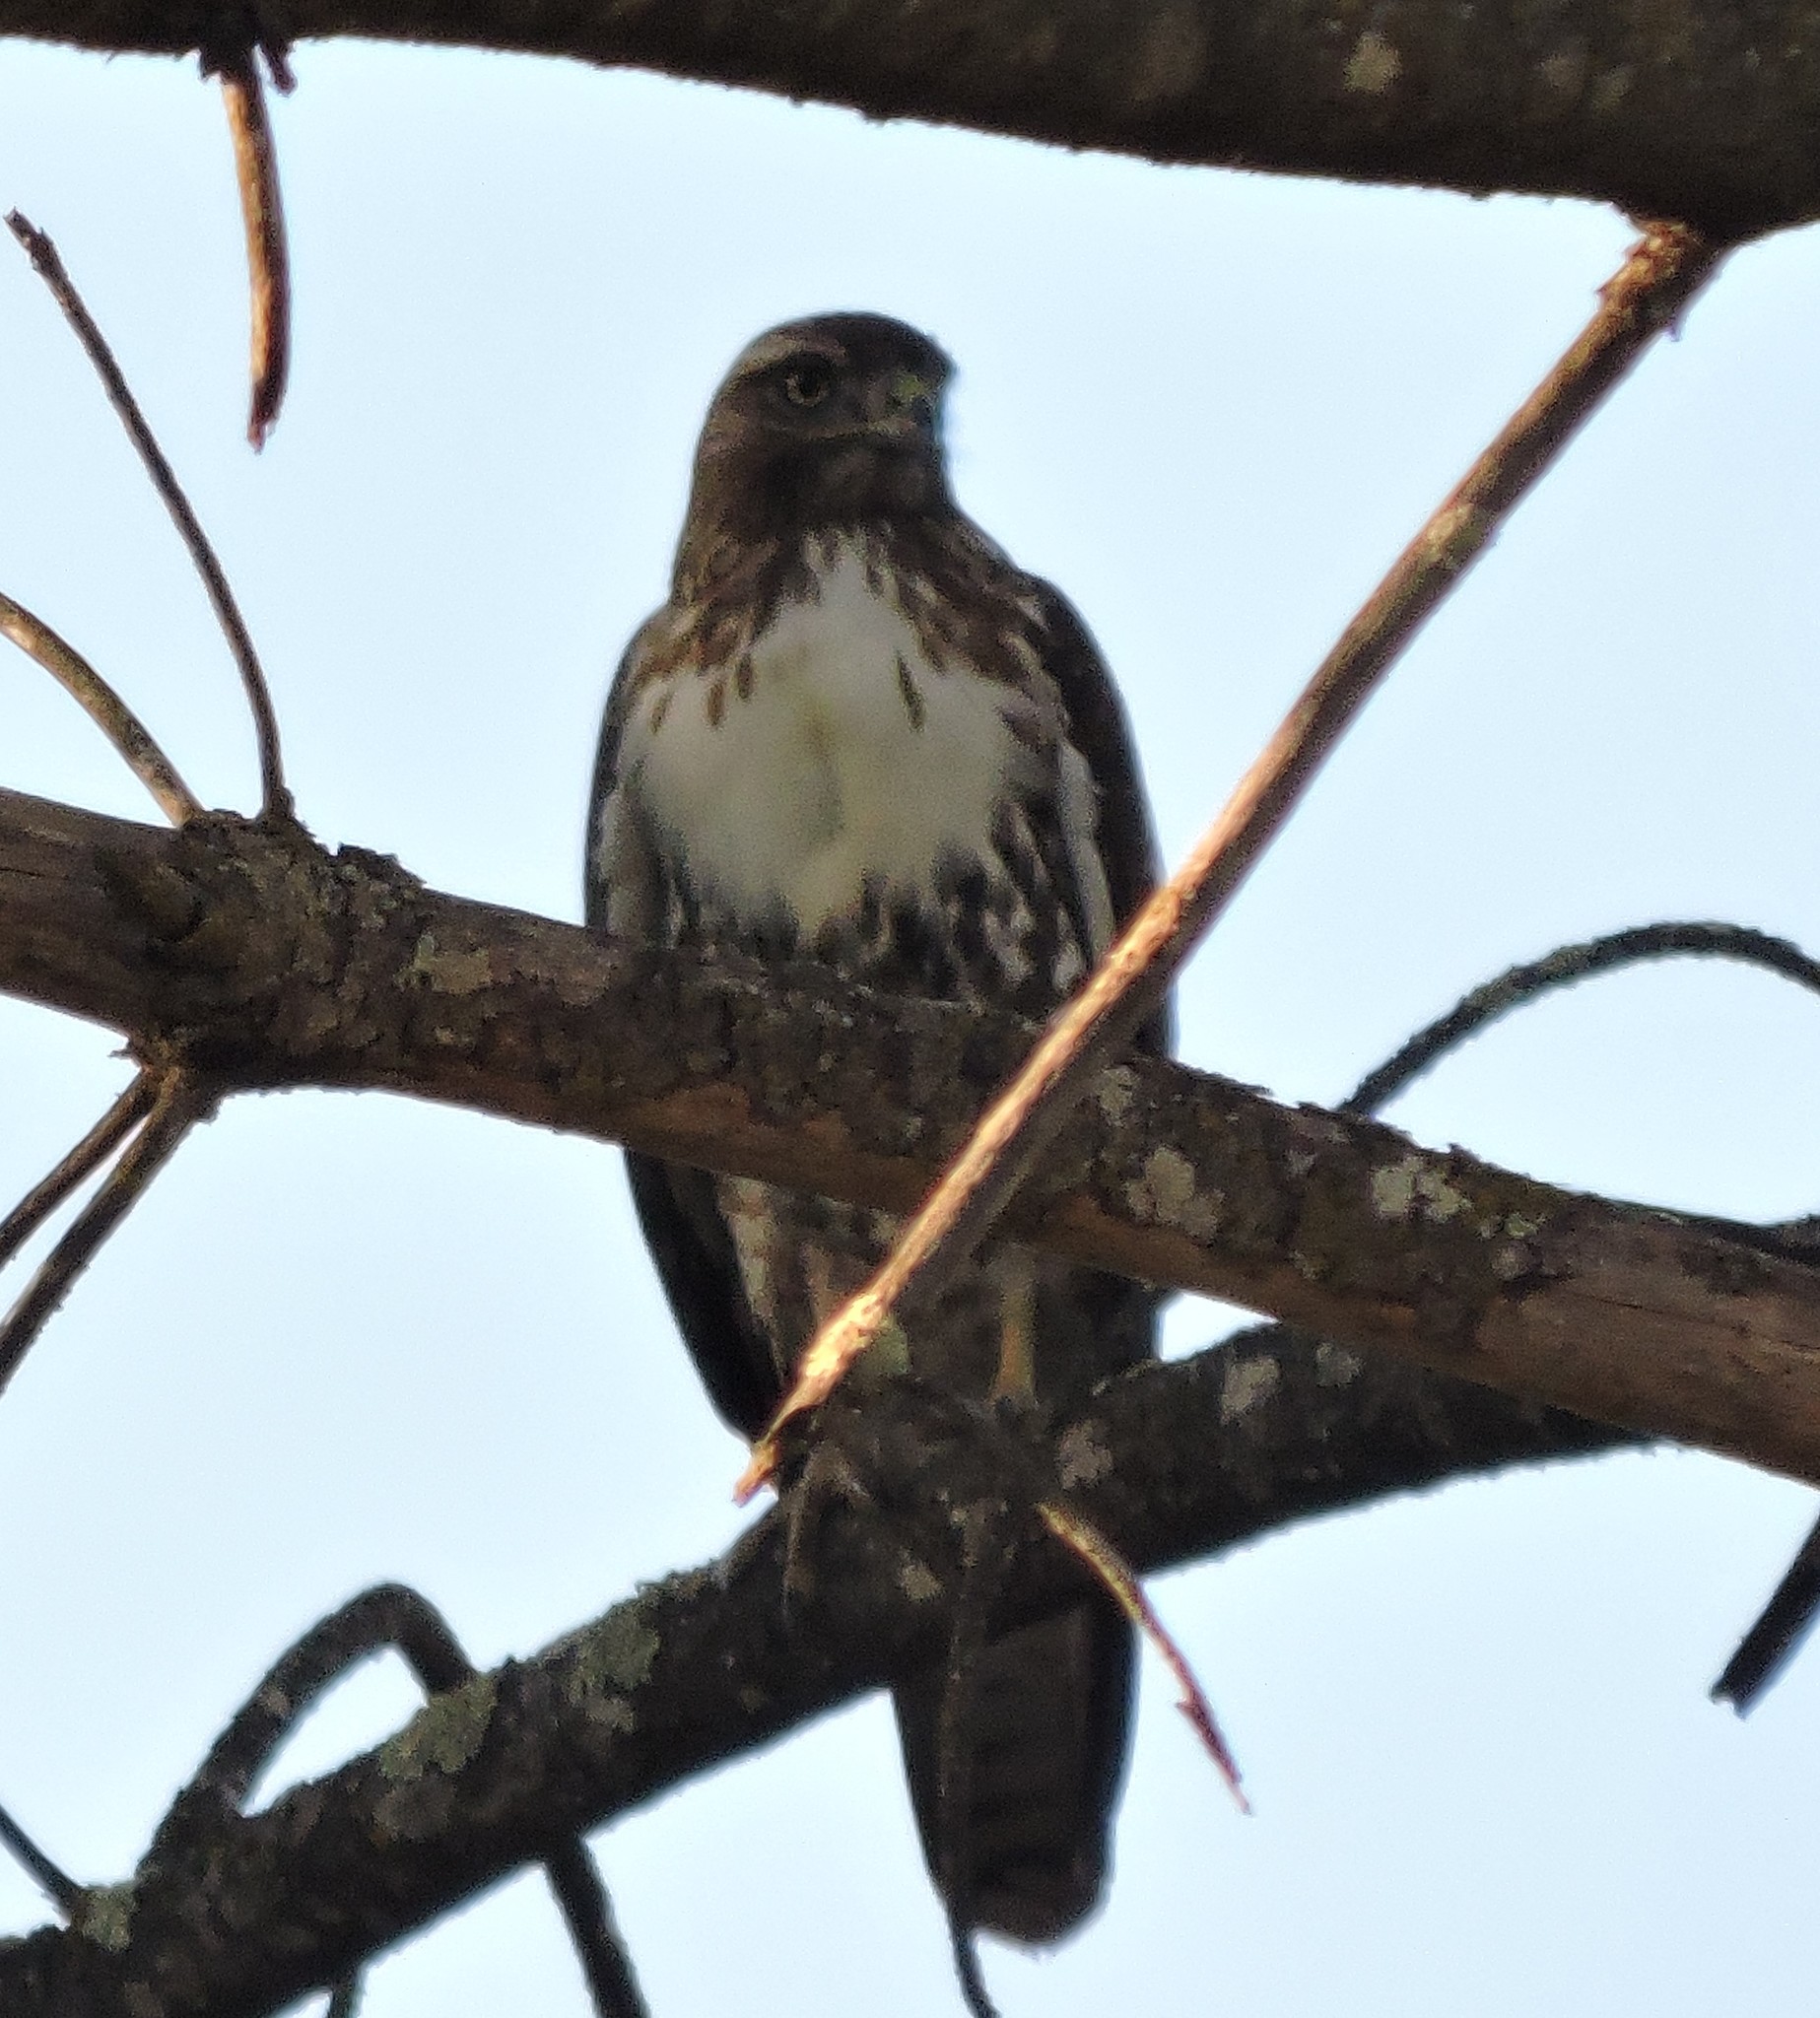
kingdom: Animalia
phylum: Chordata
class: Aves
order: Accipitriformes
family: Accipitridae
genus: Buteo
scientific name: Buteo jamaicensis
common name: Red-tailed hawk
